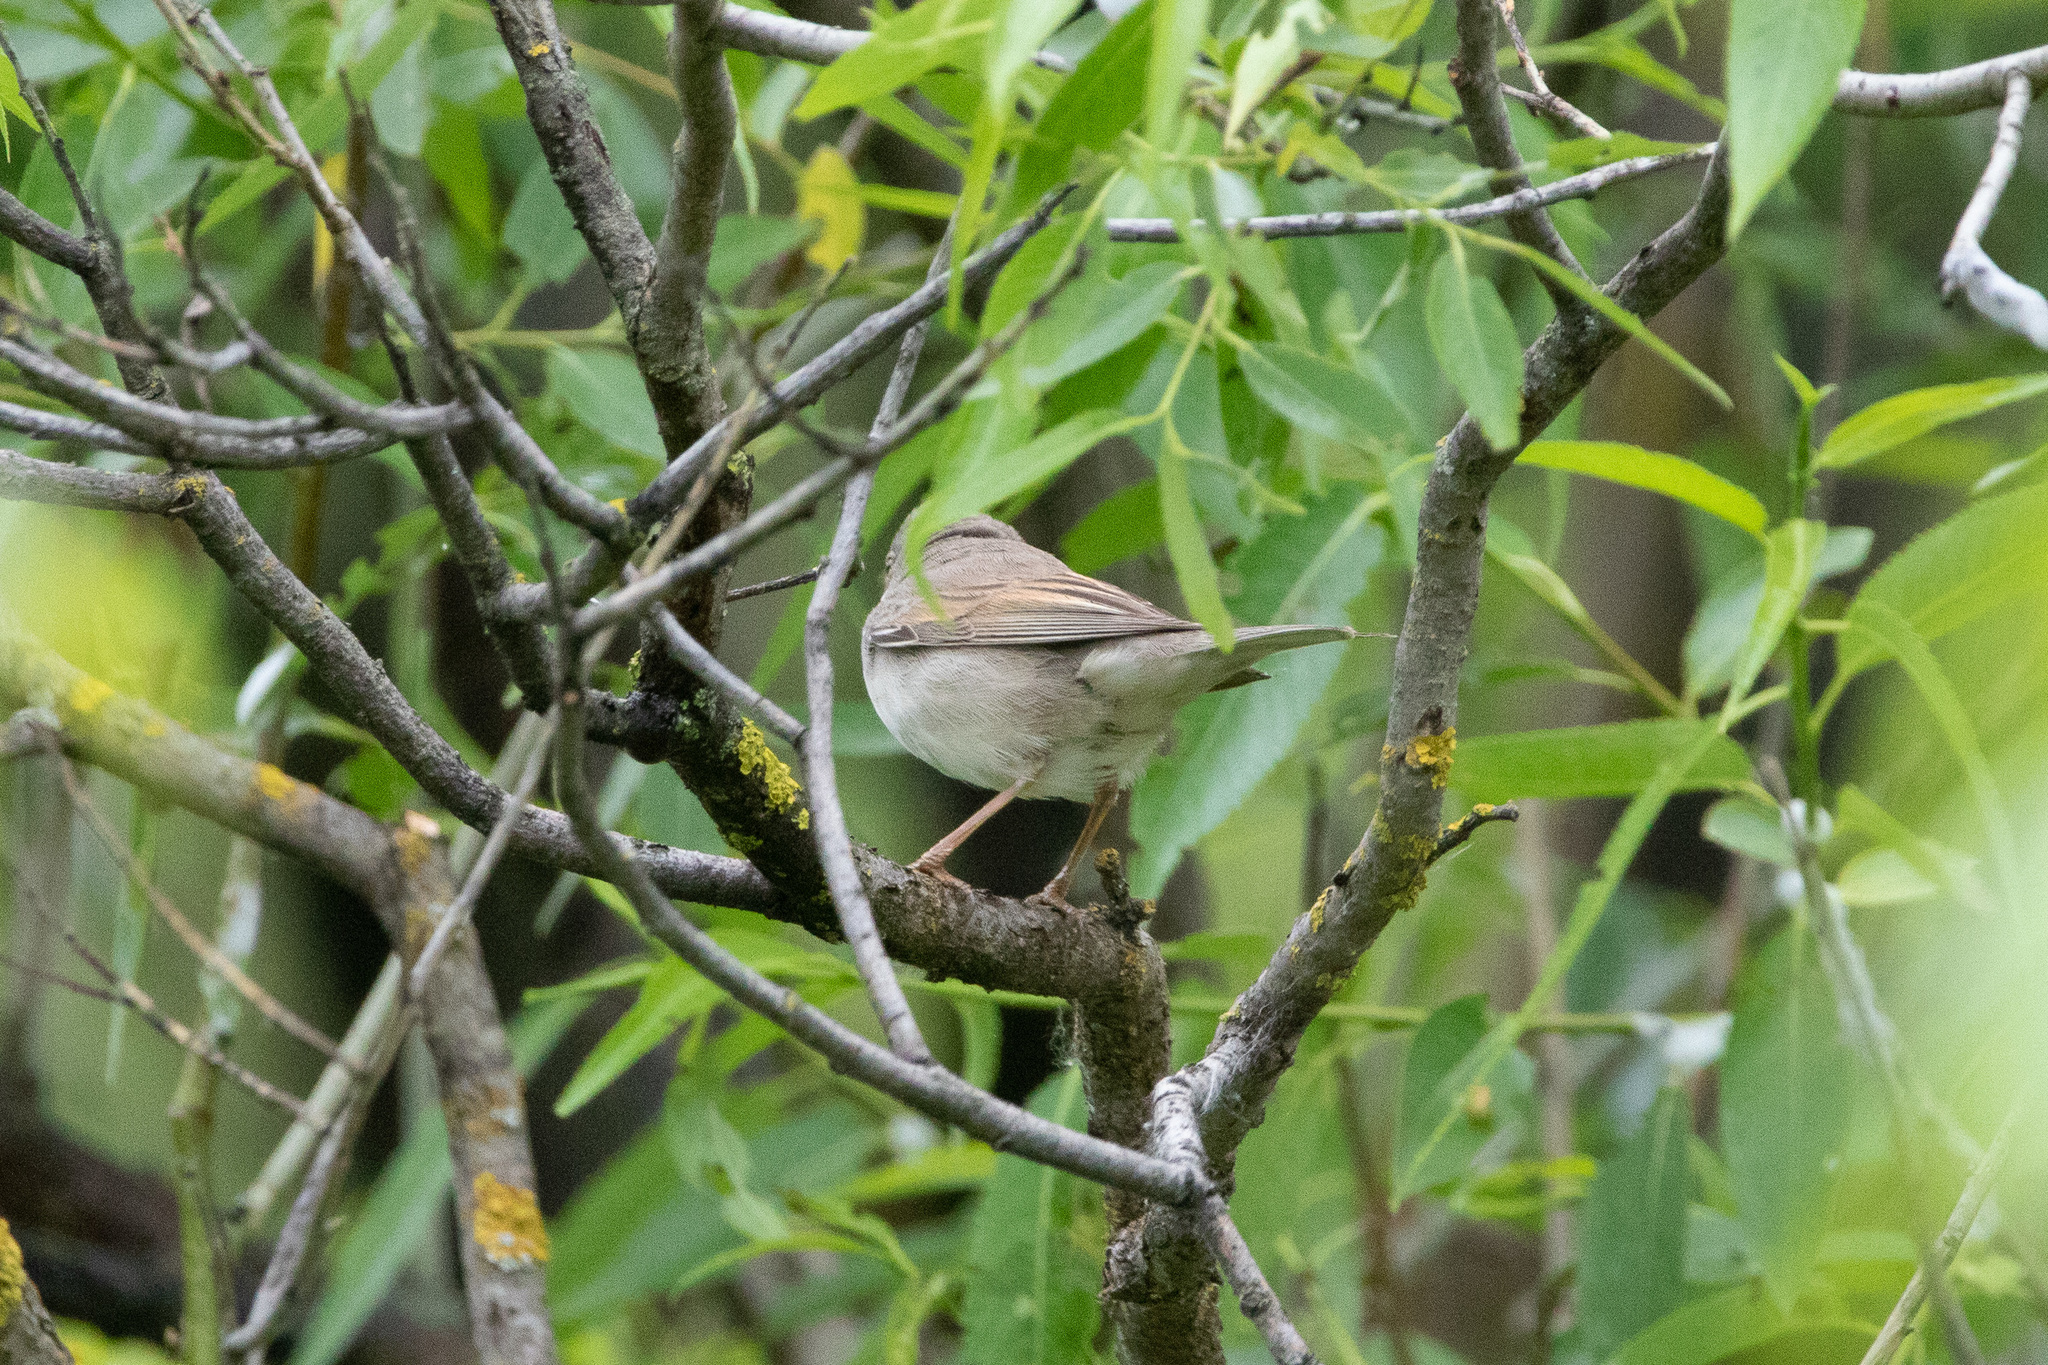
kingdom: Animalia
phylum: Chordata
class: Aves
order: Passeriformes
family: Sylviidae
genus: Sylvia
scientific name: Sylvia communis
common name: Common whitethroat
